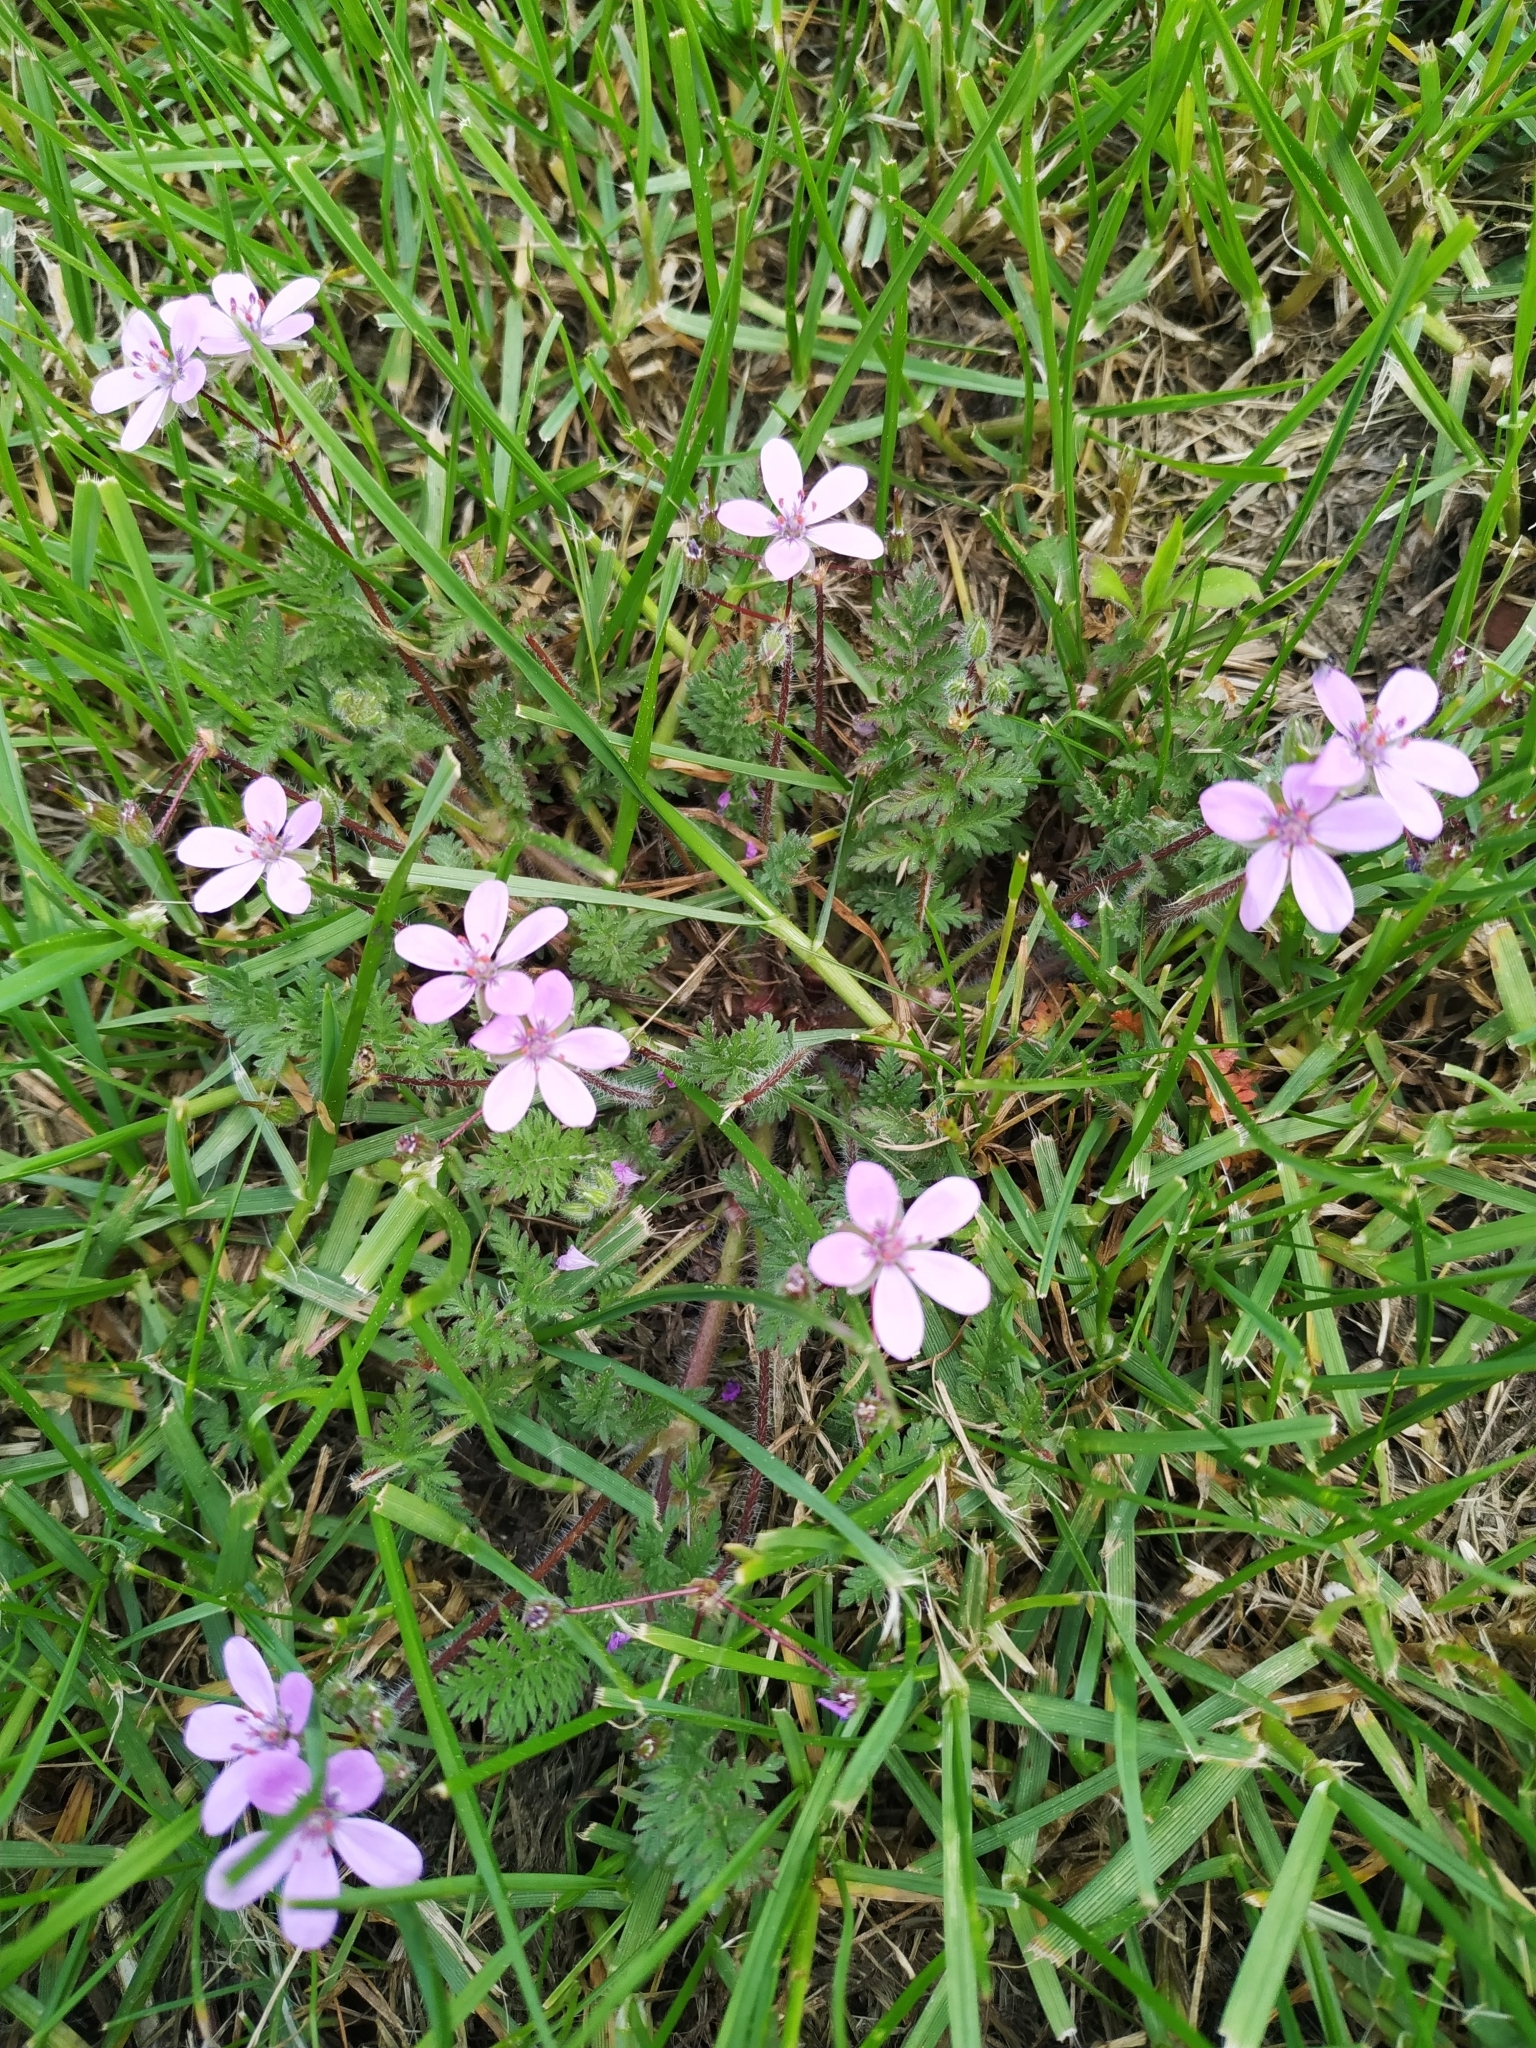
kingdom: Plantae
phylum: Tracheophyta
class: Magnoliopsida
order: Geraniales
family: Geraniaceae
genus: Erodium
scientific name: Erodium cicutarium
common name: Common stork's-bill
